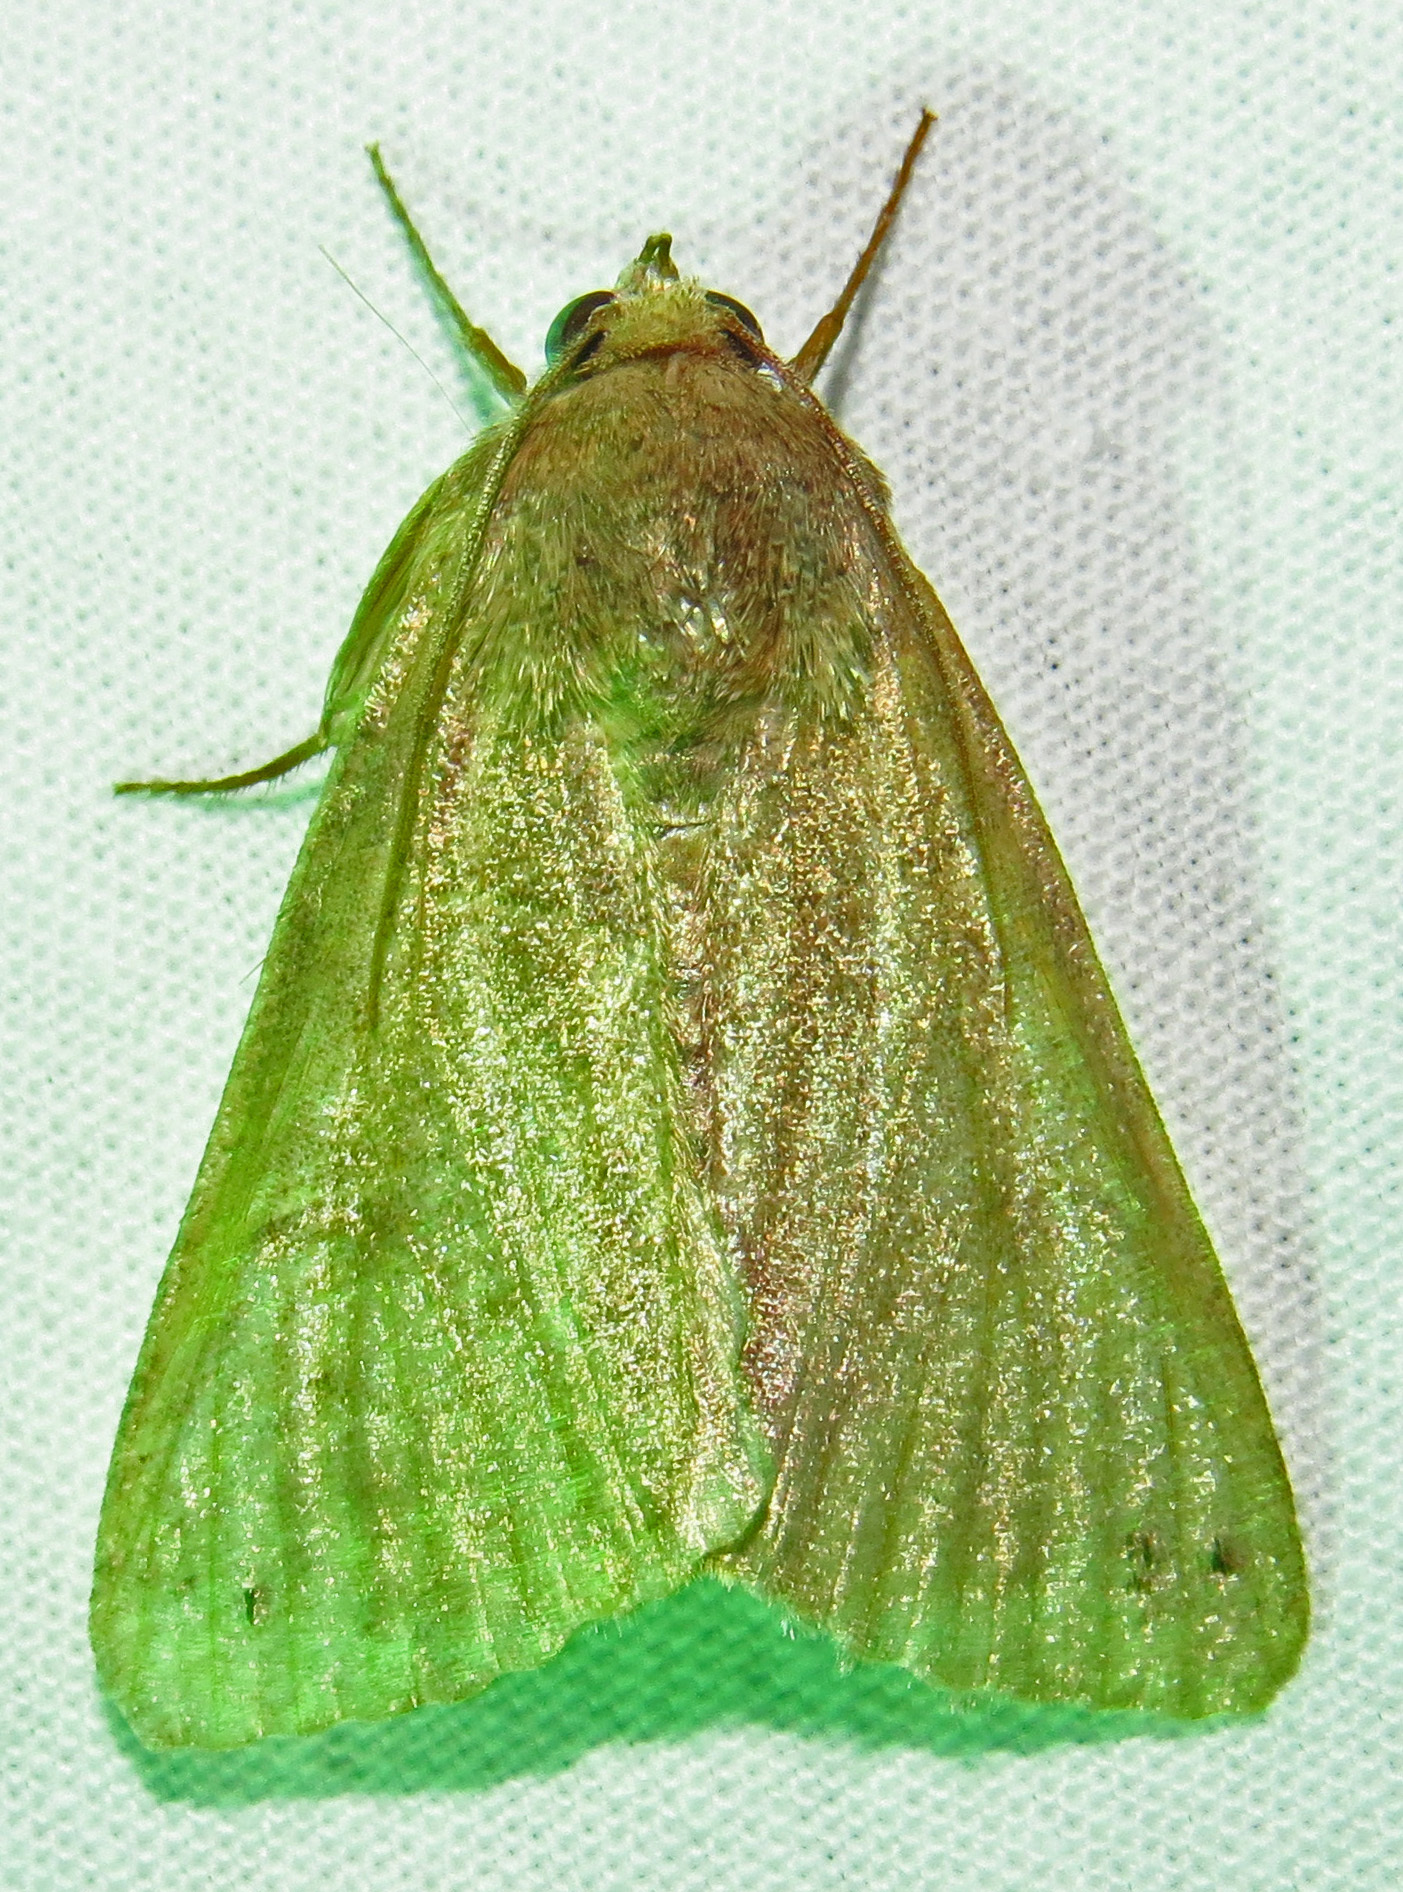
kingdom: Animalia
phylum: Arthropoda
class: Insecta
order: Lepidoptera
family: Erebidae
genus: Cissusa
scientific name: Cissusa spadix
